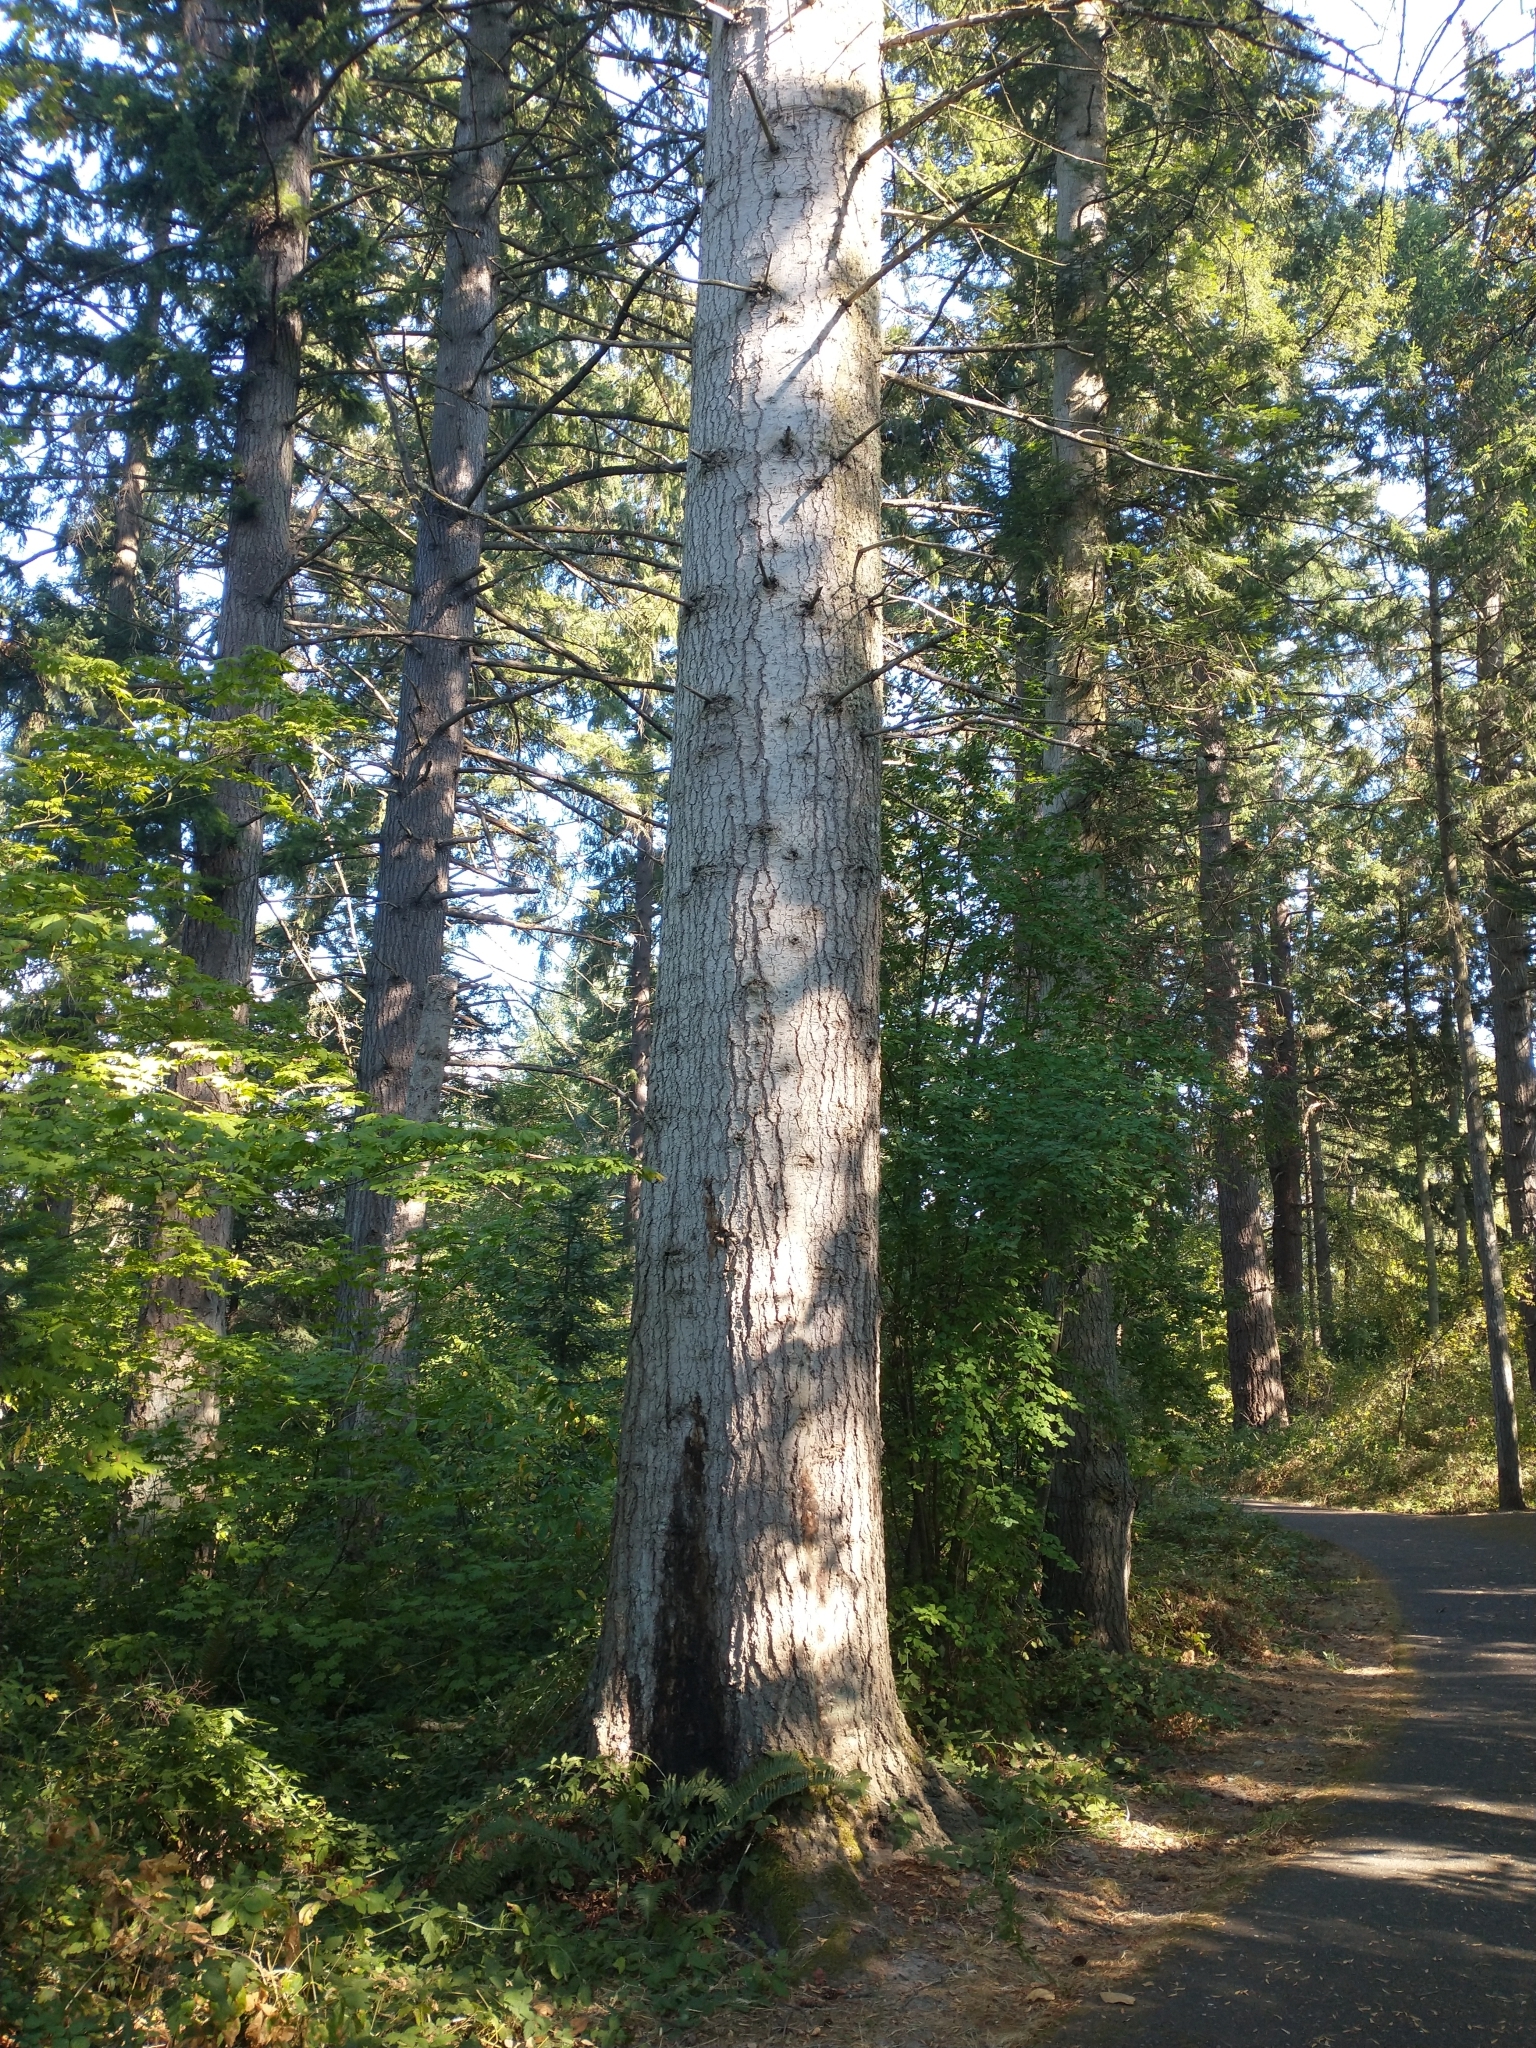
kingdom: Plantae
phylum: Tracheophyta
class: Pinopsida
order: Pinales
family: Pinaceae
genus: Abies
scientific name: Abies grandis
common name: Giant fir
